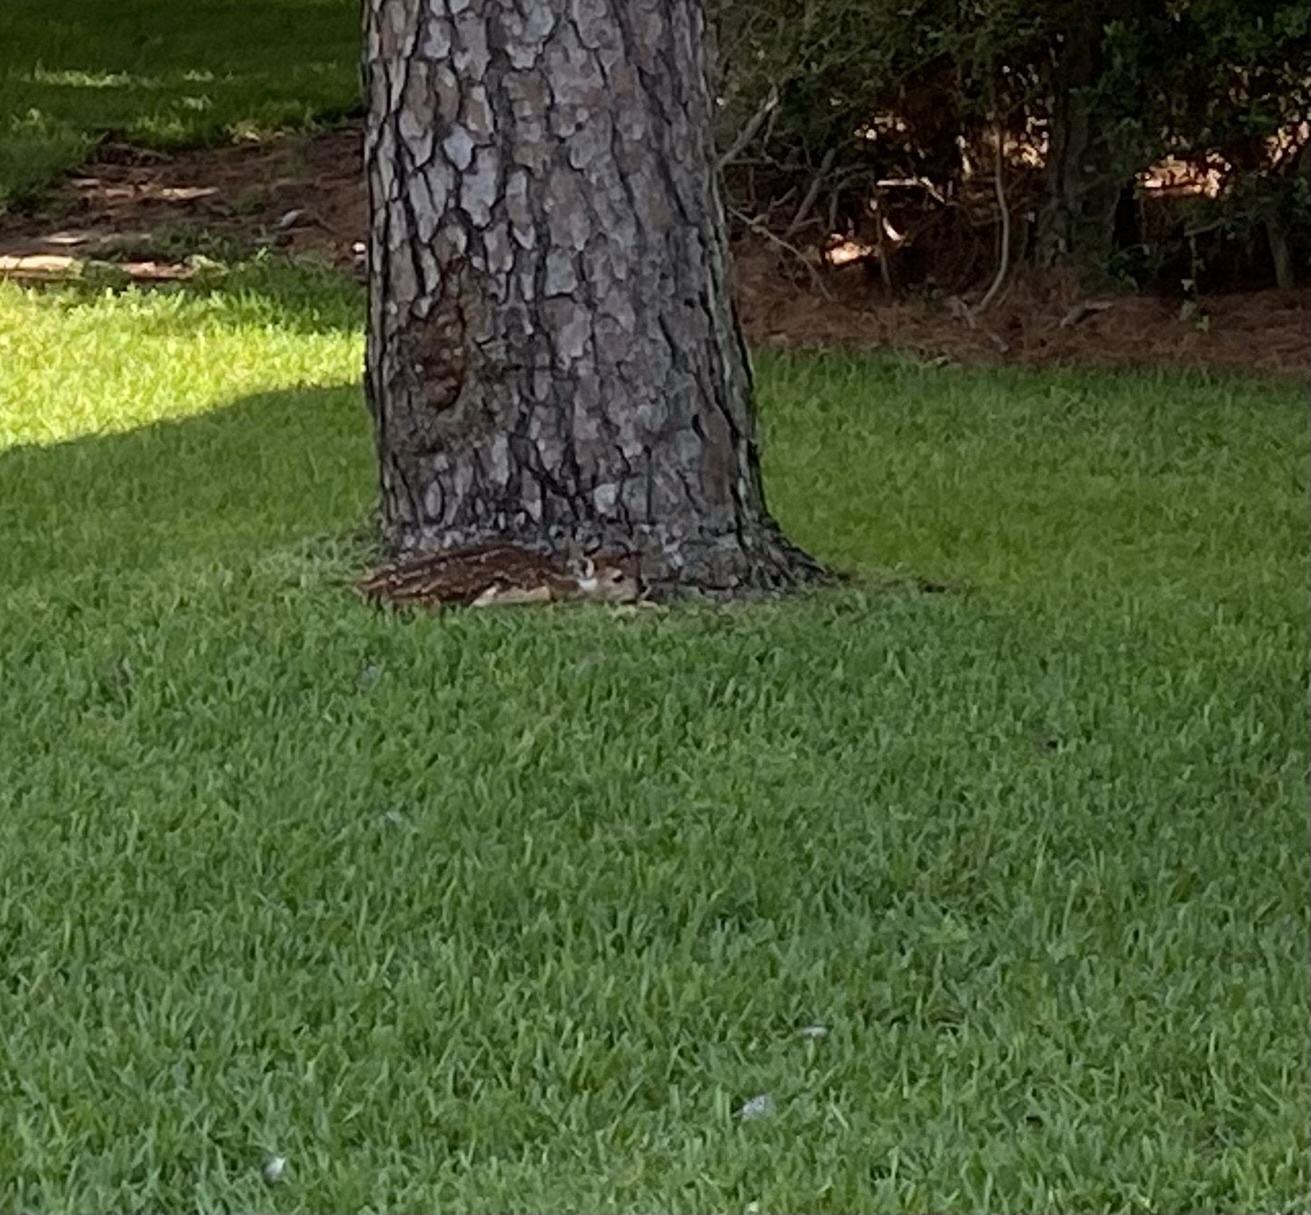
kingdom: Animalia
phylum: Chordata
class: Mammalia
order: Artiodactyla
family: Cervidae
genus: Odocoileus
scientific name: Odocoileus virginianus
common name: White-tailed deer
